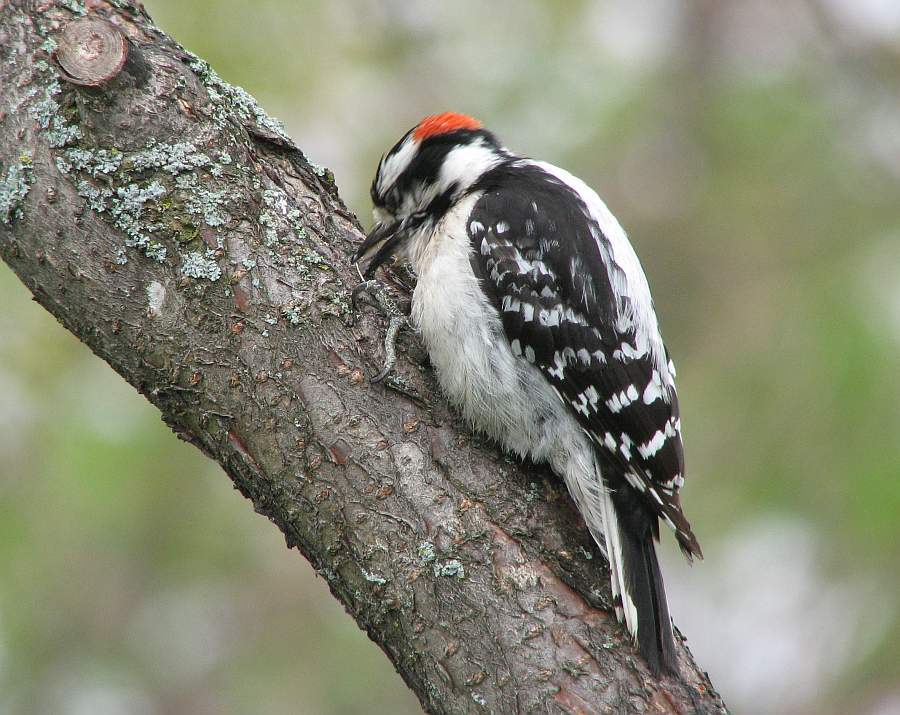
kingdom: Animalia
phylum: Chordata
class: Aves
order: Piciformes
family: Picidae
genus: Dryobates
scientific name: Dryobates pubescens
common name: Downy woodpecker
